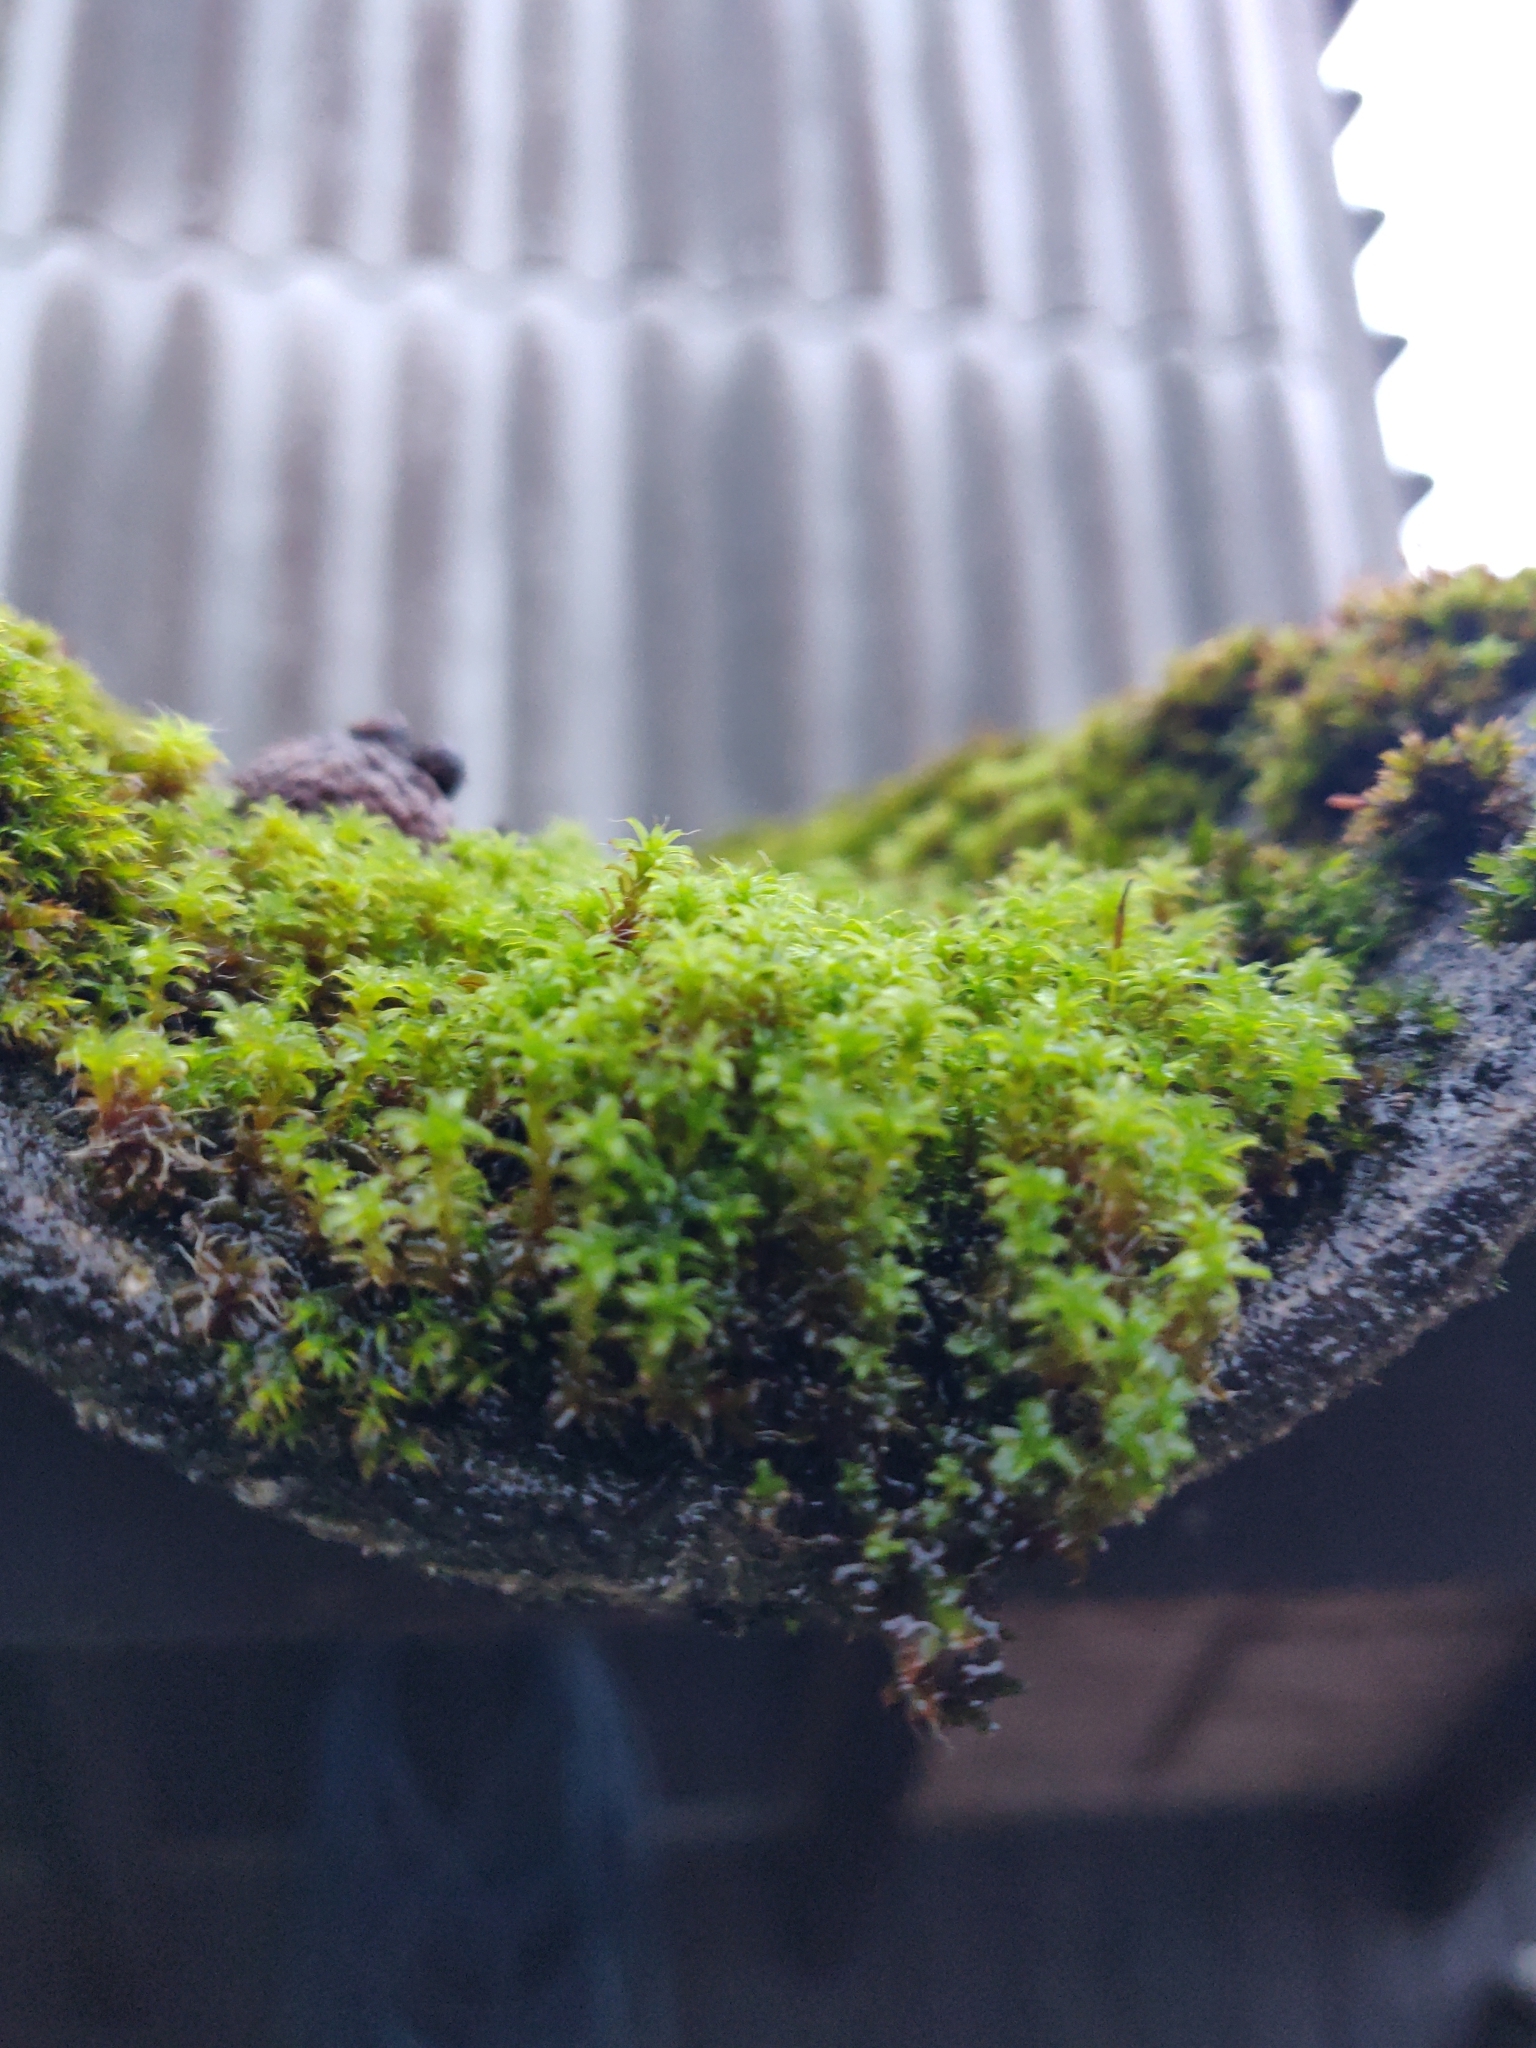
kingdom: Plantae
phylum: Bryophyta
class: Bryopsida
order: Pottiales
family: Pottiaceae
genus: Syntrichia
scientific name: Syntrichia ruralis
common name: Sidewalk screw moss
